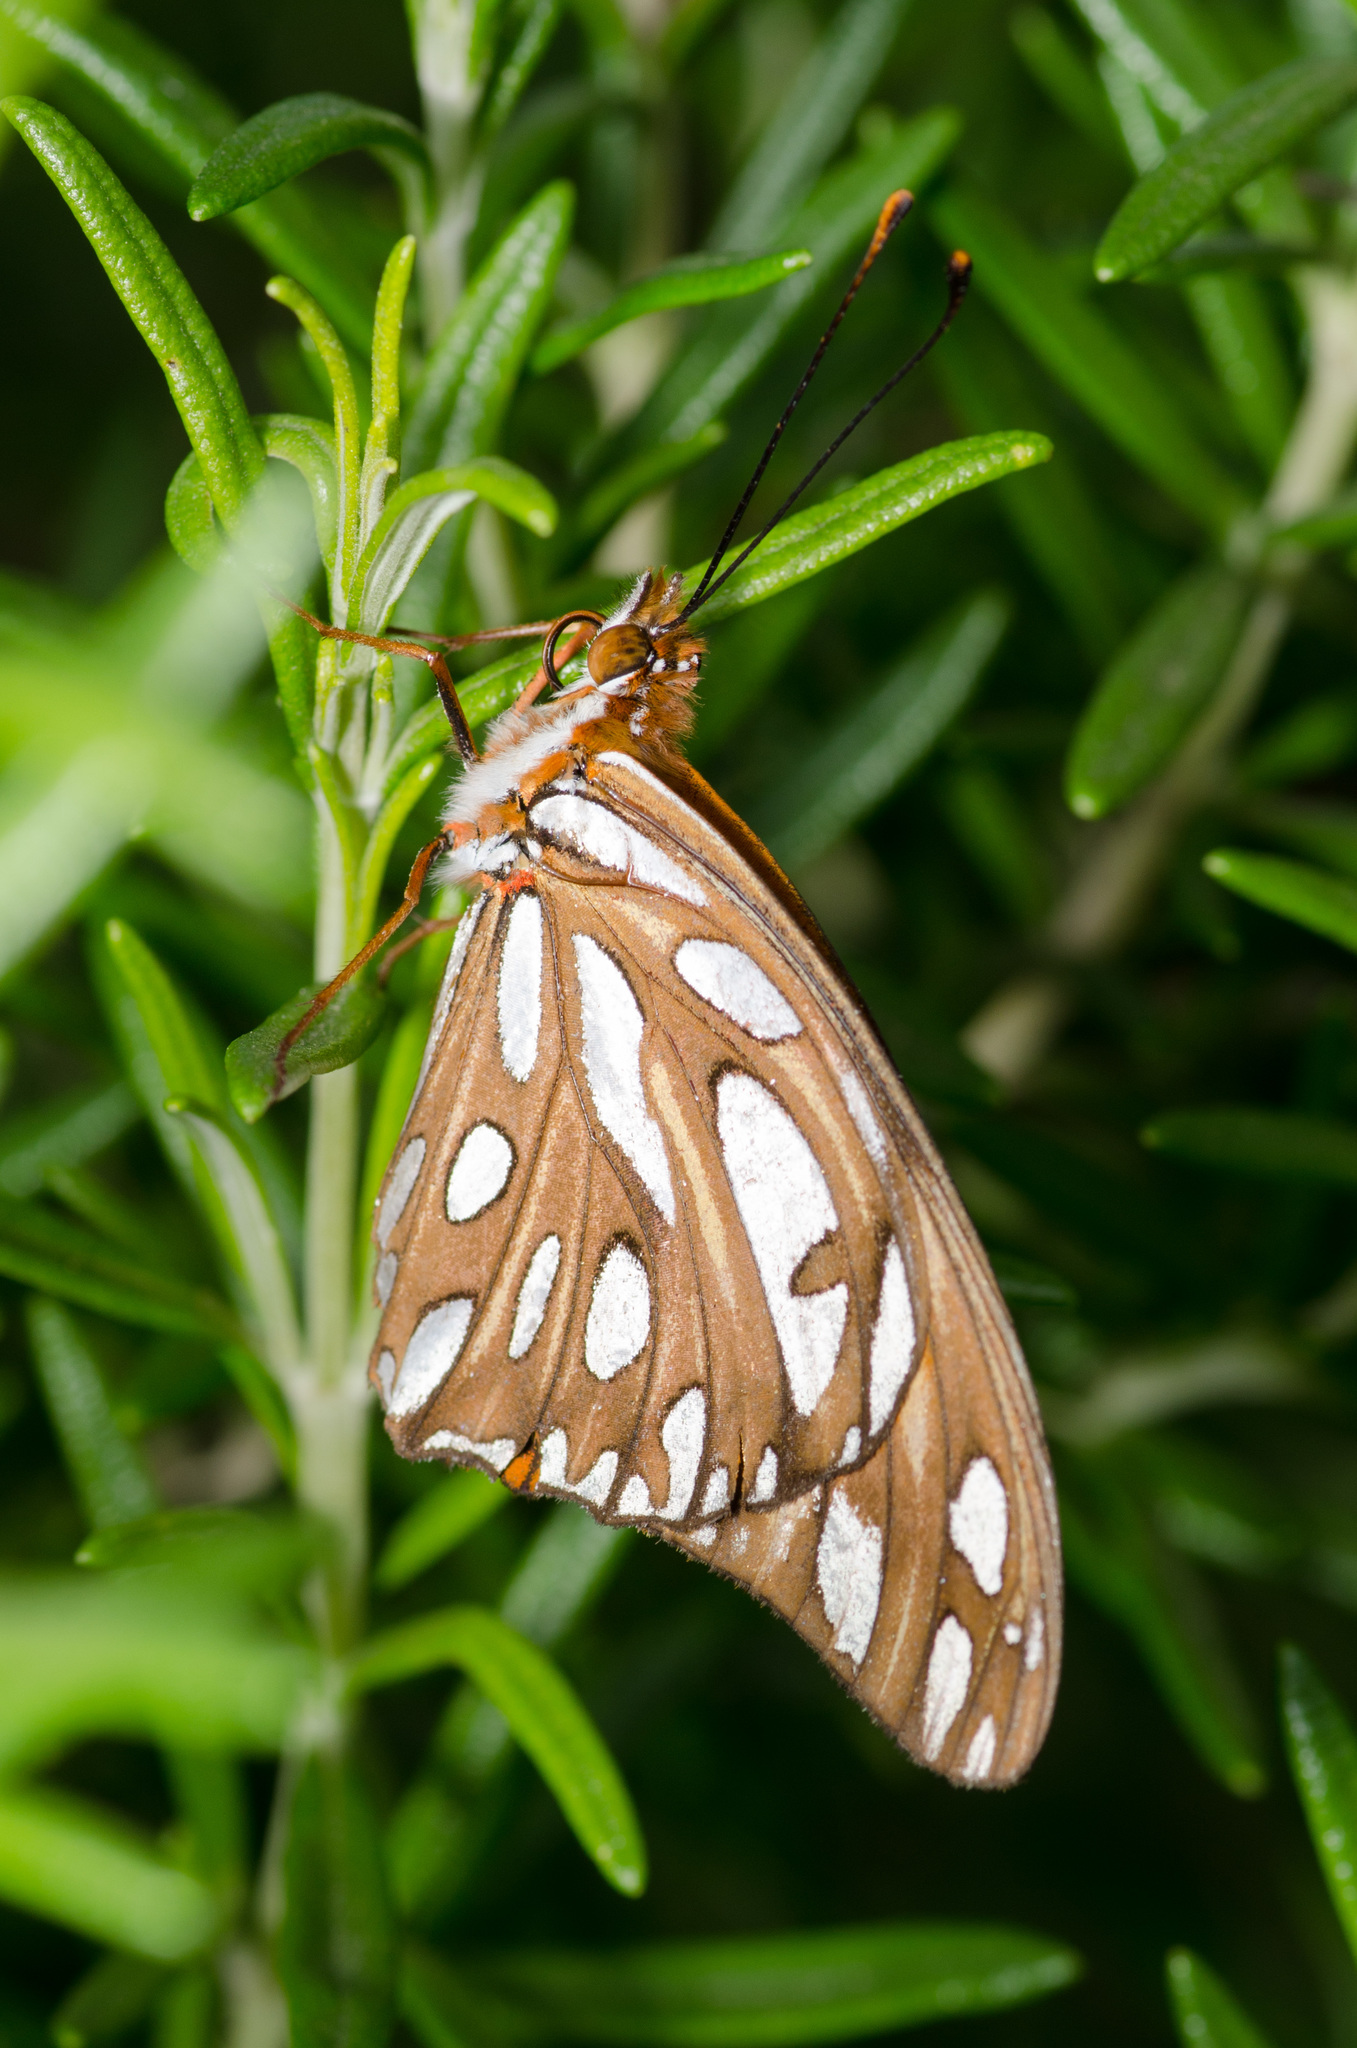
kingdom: Animalia
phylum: Arthropoda
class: Insecta
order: Lepidoptera
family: Nymphalidae
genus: Dione
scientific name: Dione vanillae
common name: Gulf fritillary
